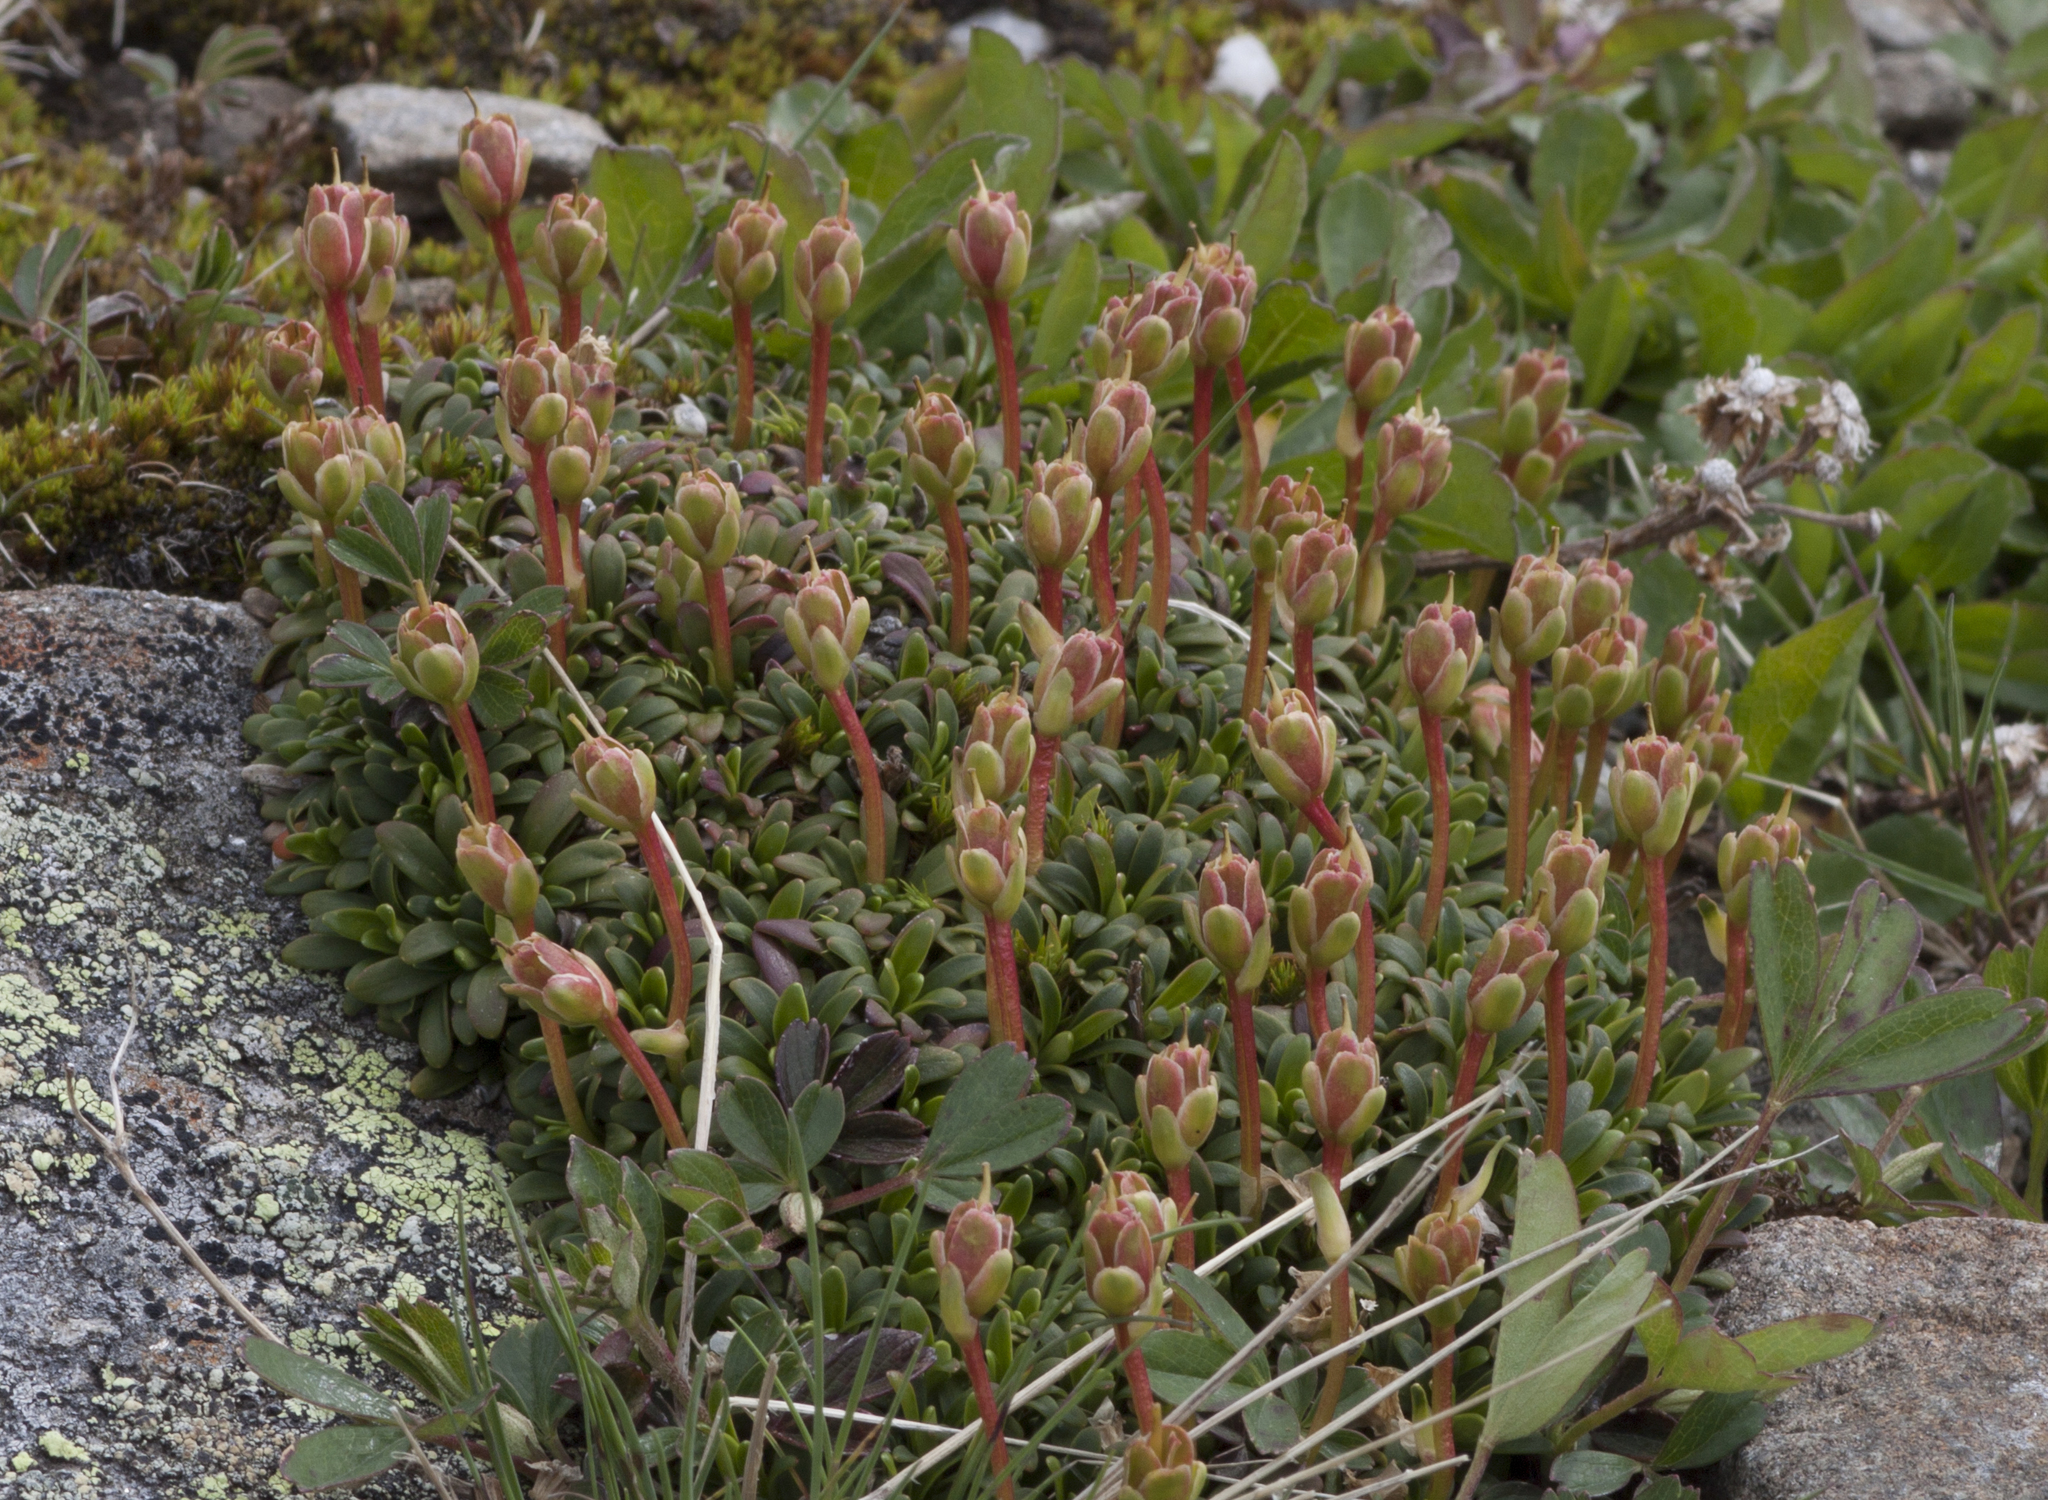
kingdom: Plantae
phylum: Tracheophyta
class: Magnoliopsida
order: Ericales
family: Diapensiaceae
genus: Diapensia
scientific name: Diapensia lapponica
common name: Diapensia
